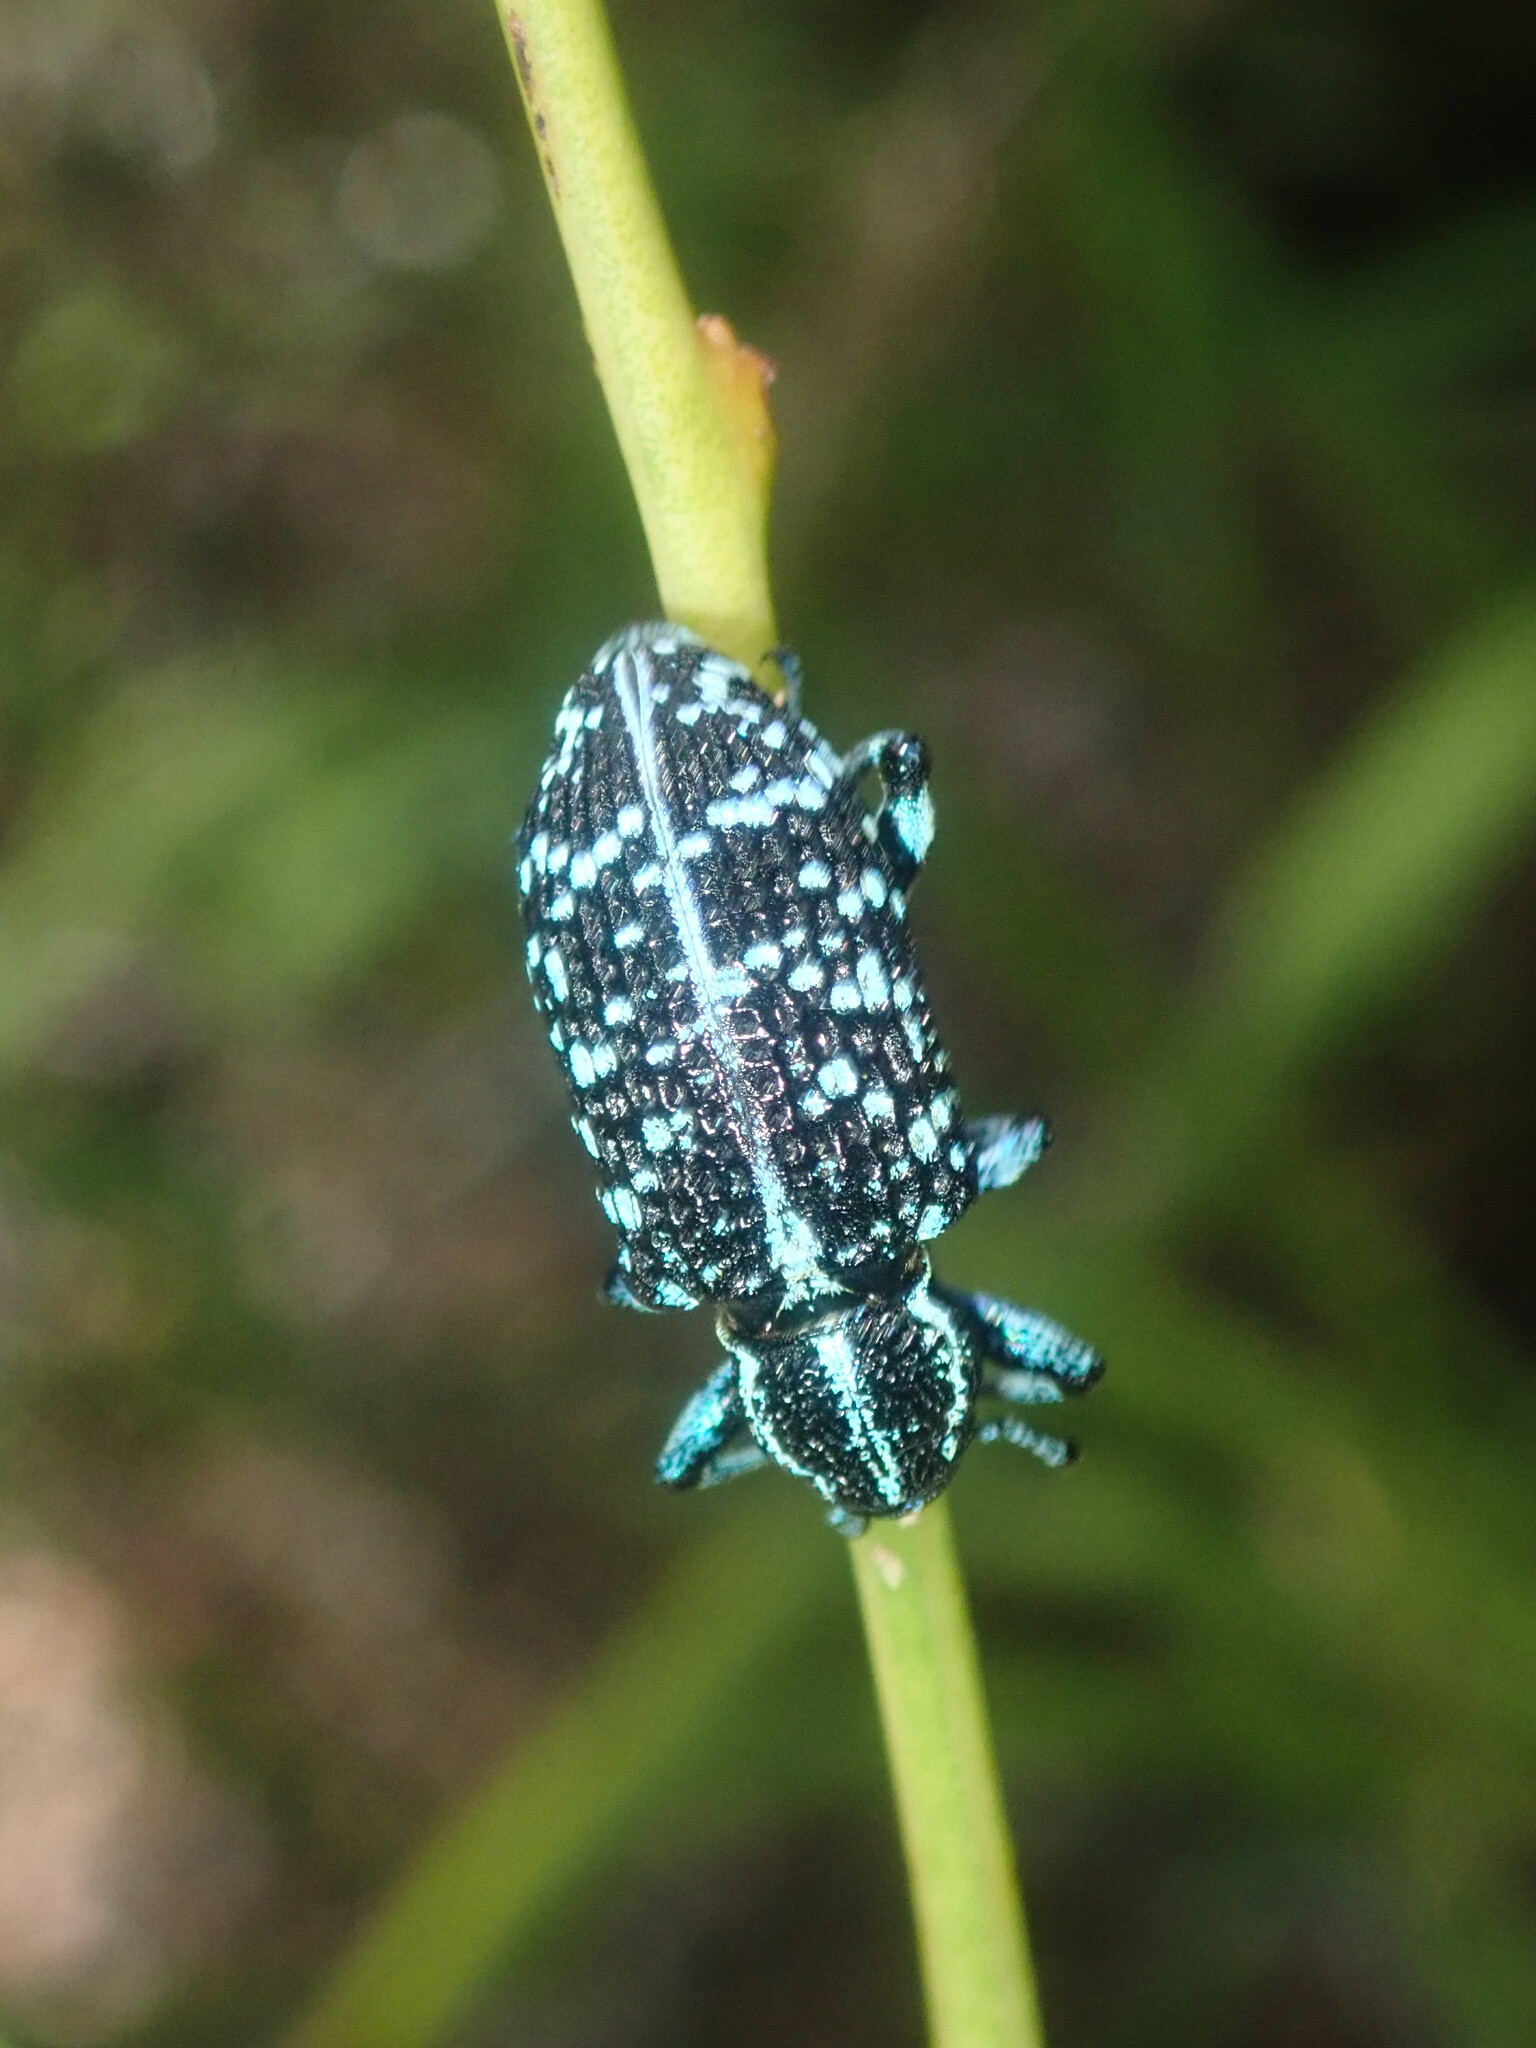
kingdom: Animalia
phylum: Arthropoda
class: Insecta
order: Coleoptera
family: Curculionidae
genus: Chrysolopus
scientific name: Chrysolopus spectabilis
